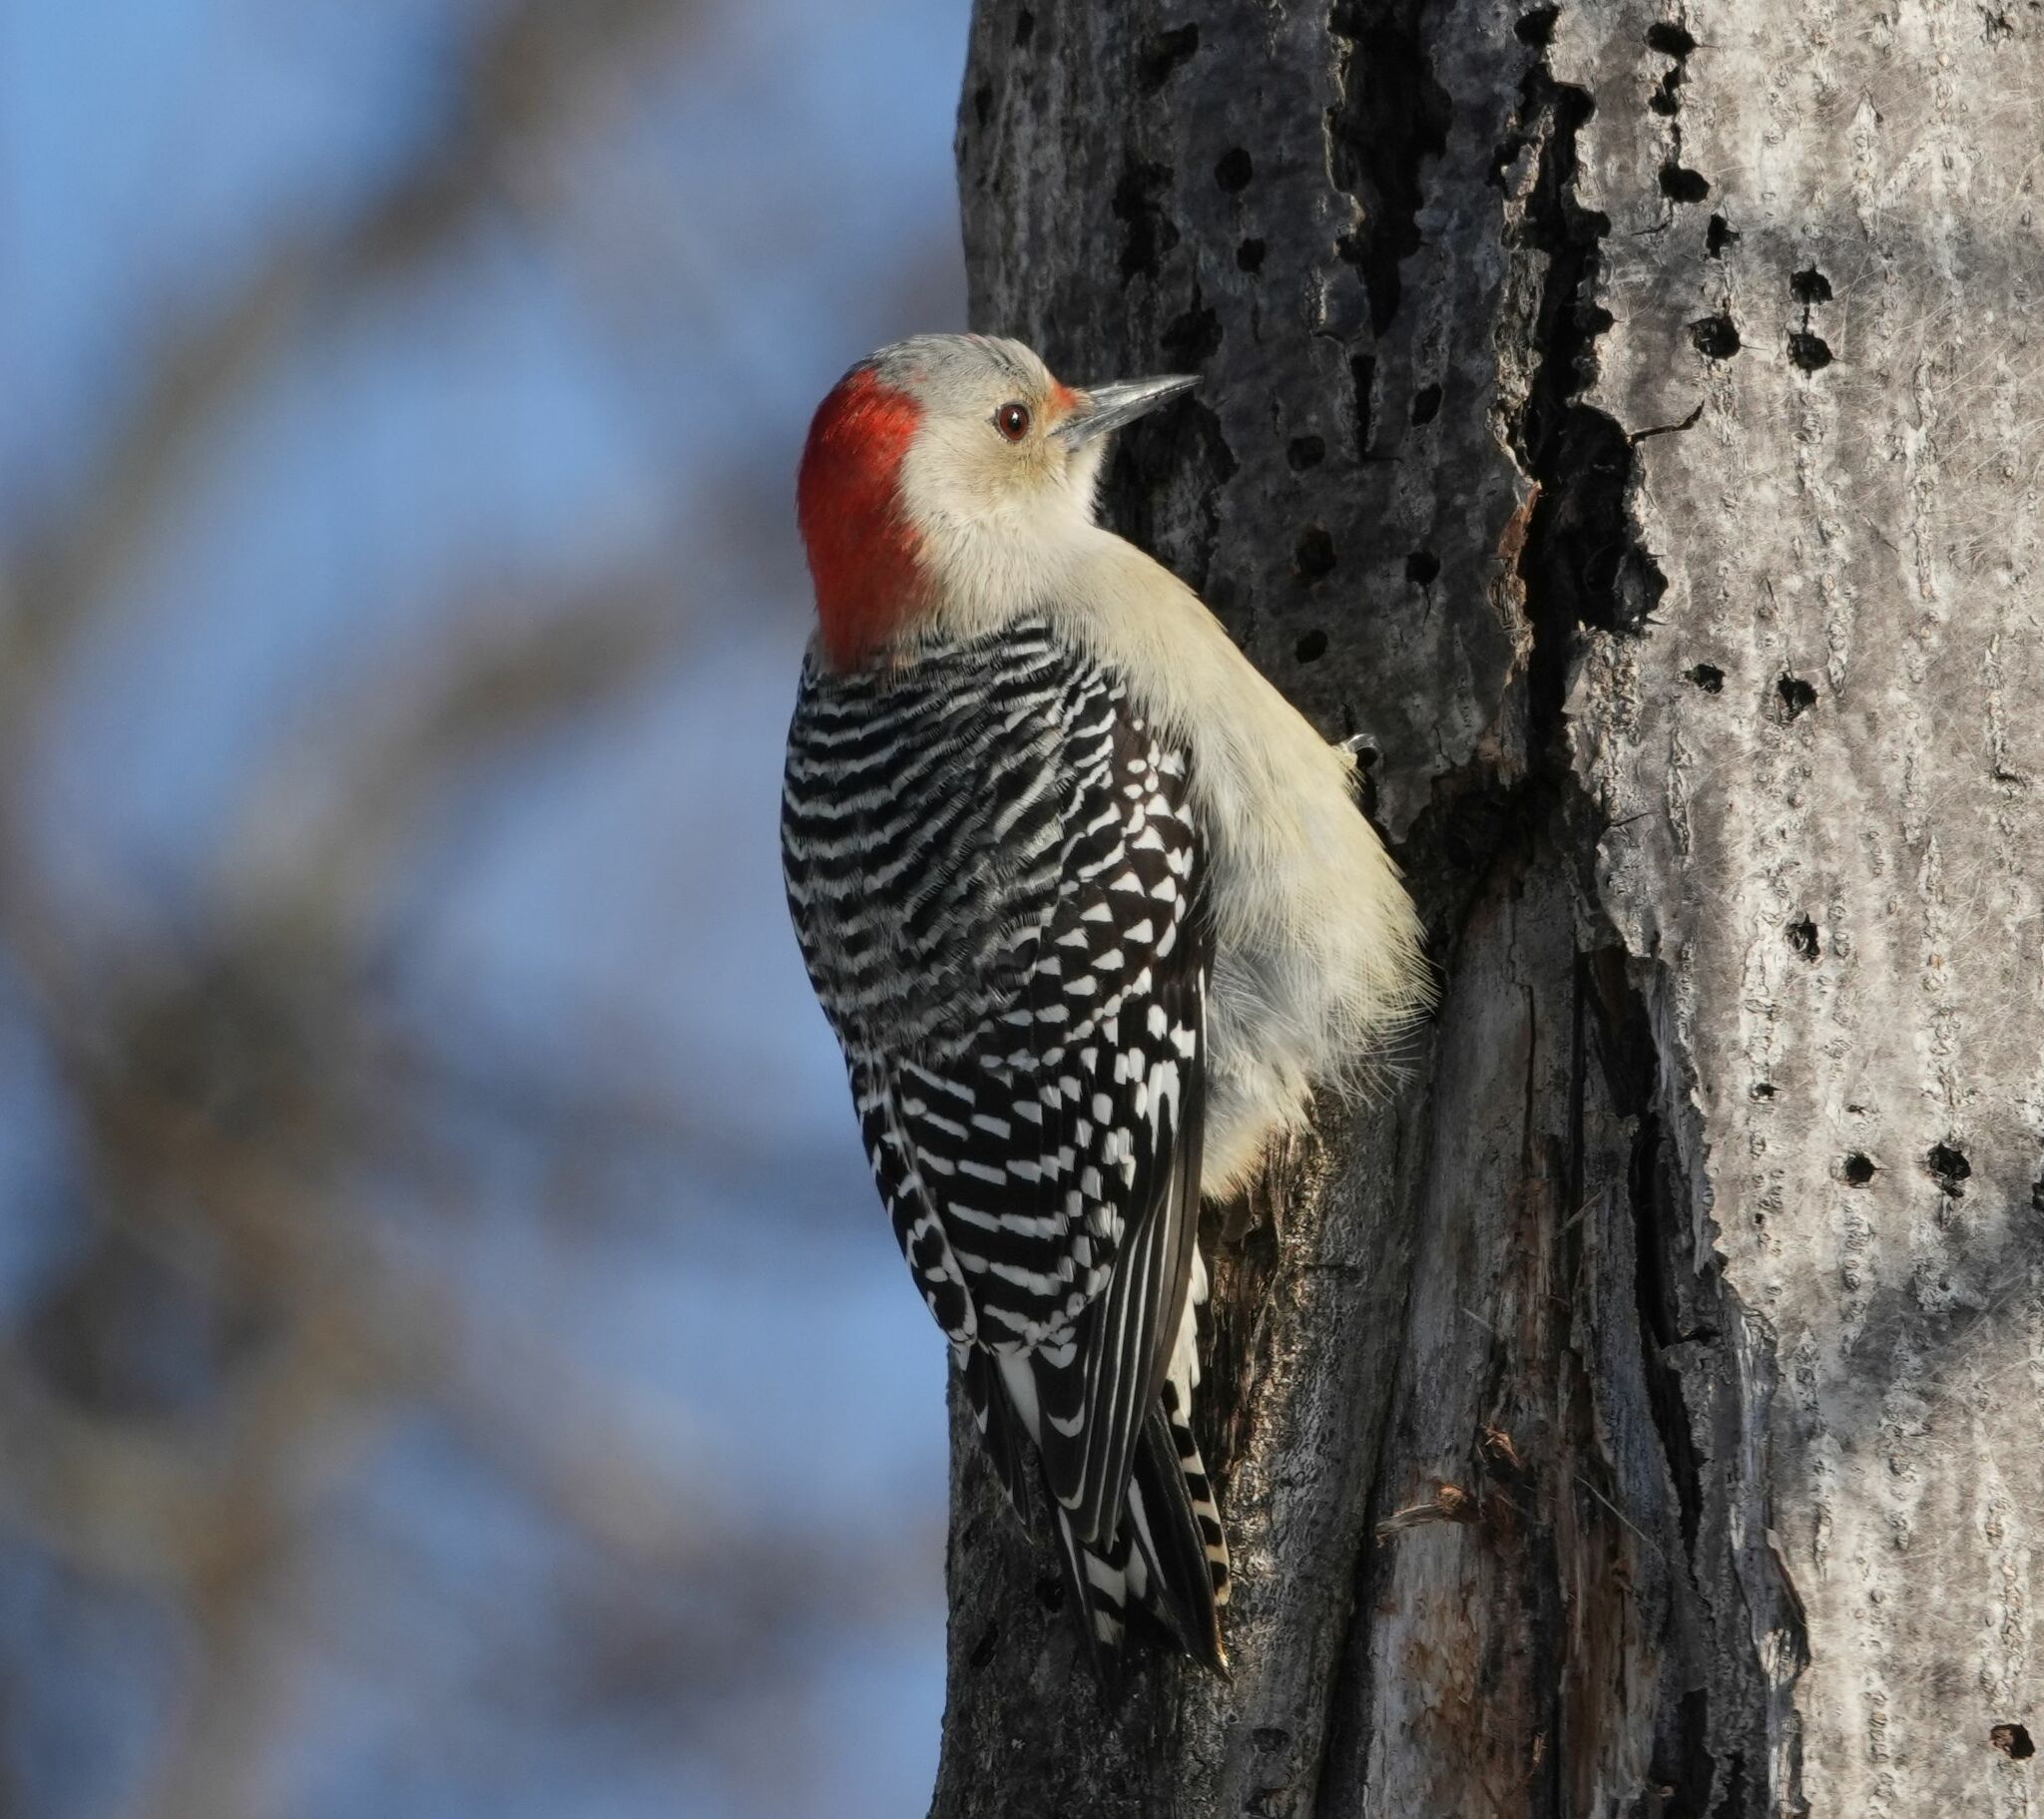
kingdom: Animalia
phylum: Chordata
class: Aves
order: Piciformes
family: Picidae
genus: Melanerpes
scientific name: Melanerpes carolinus
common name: Red-bellied woodpecker
